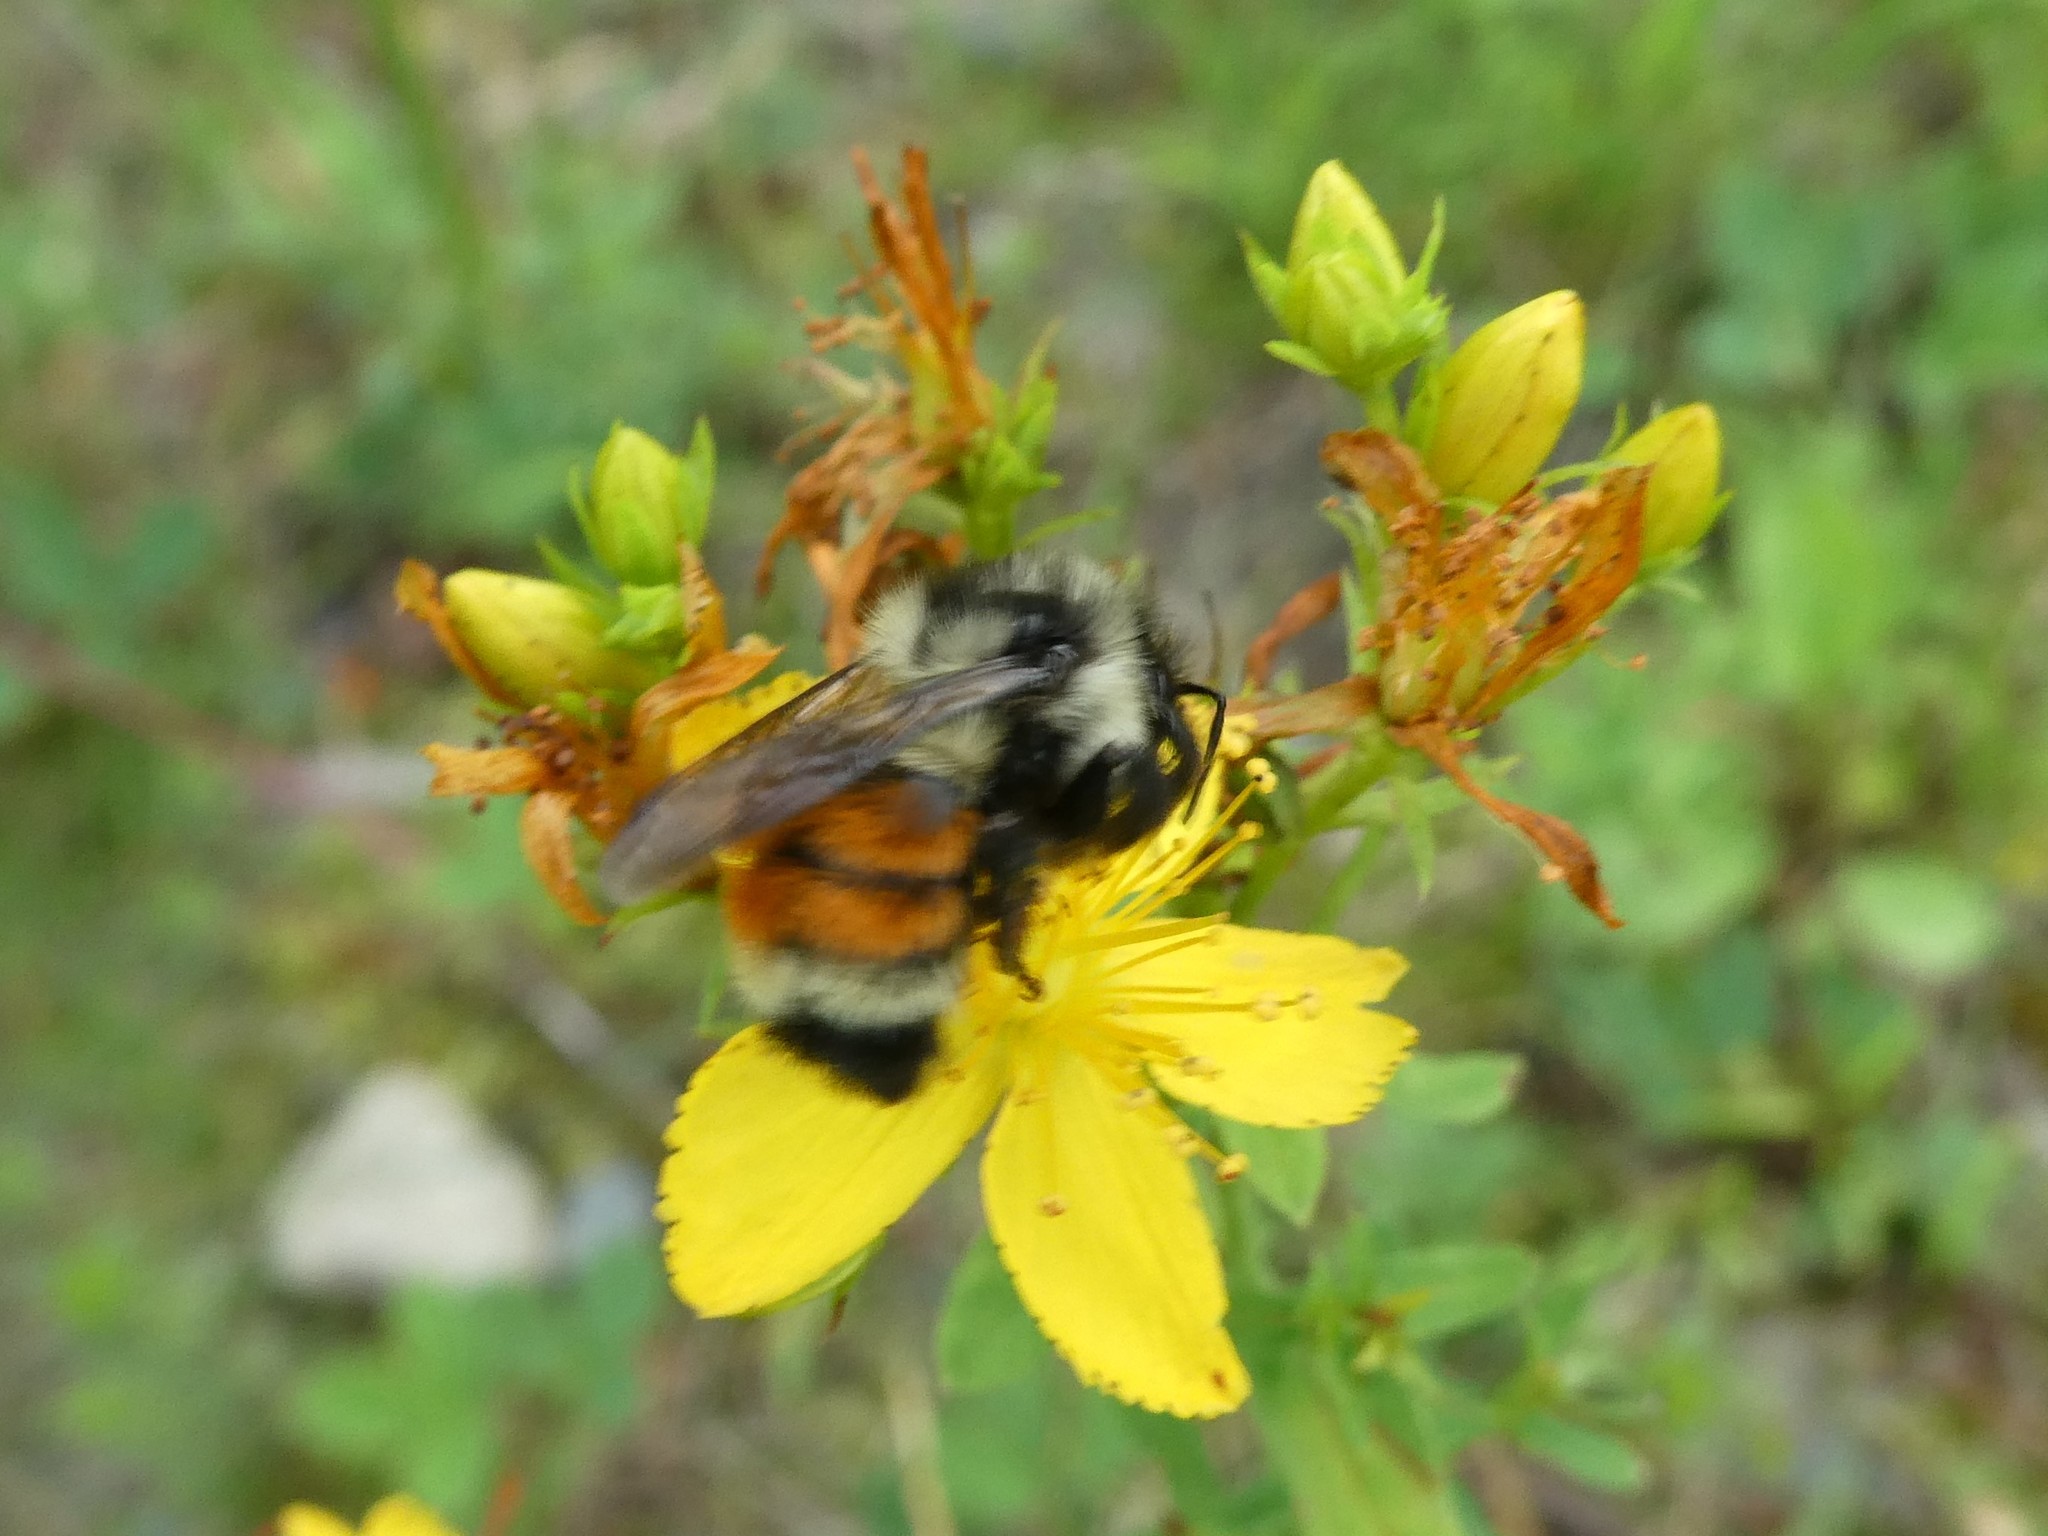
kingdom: Animalia
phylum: Arthropoda
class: Insecta
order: Hymenoptera
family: Apidae
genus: Bombus
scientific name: Bombus ternarius
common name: Tri-colored bumble bee
